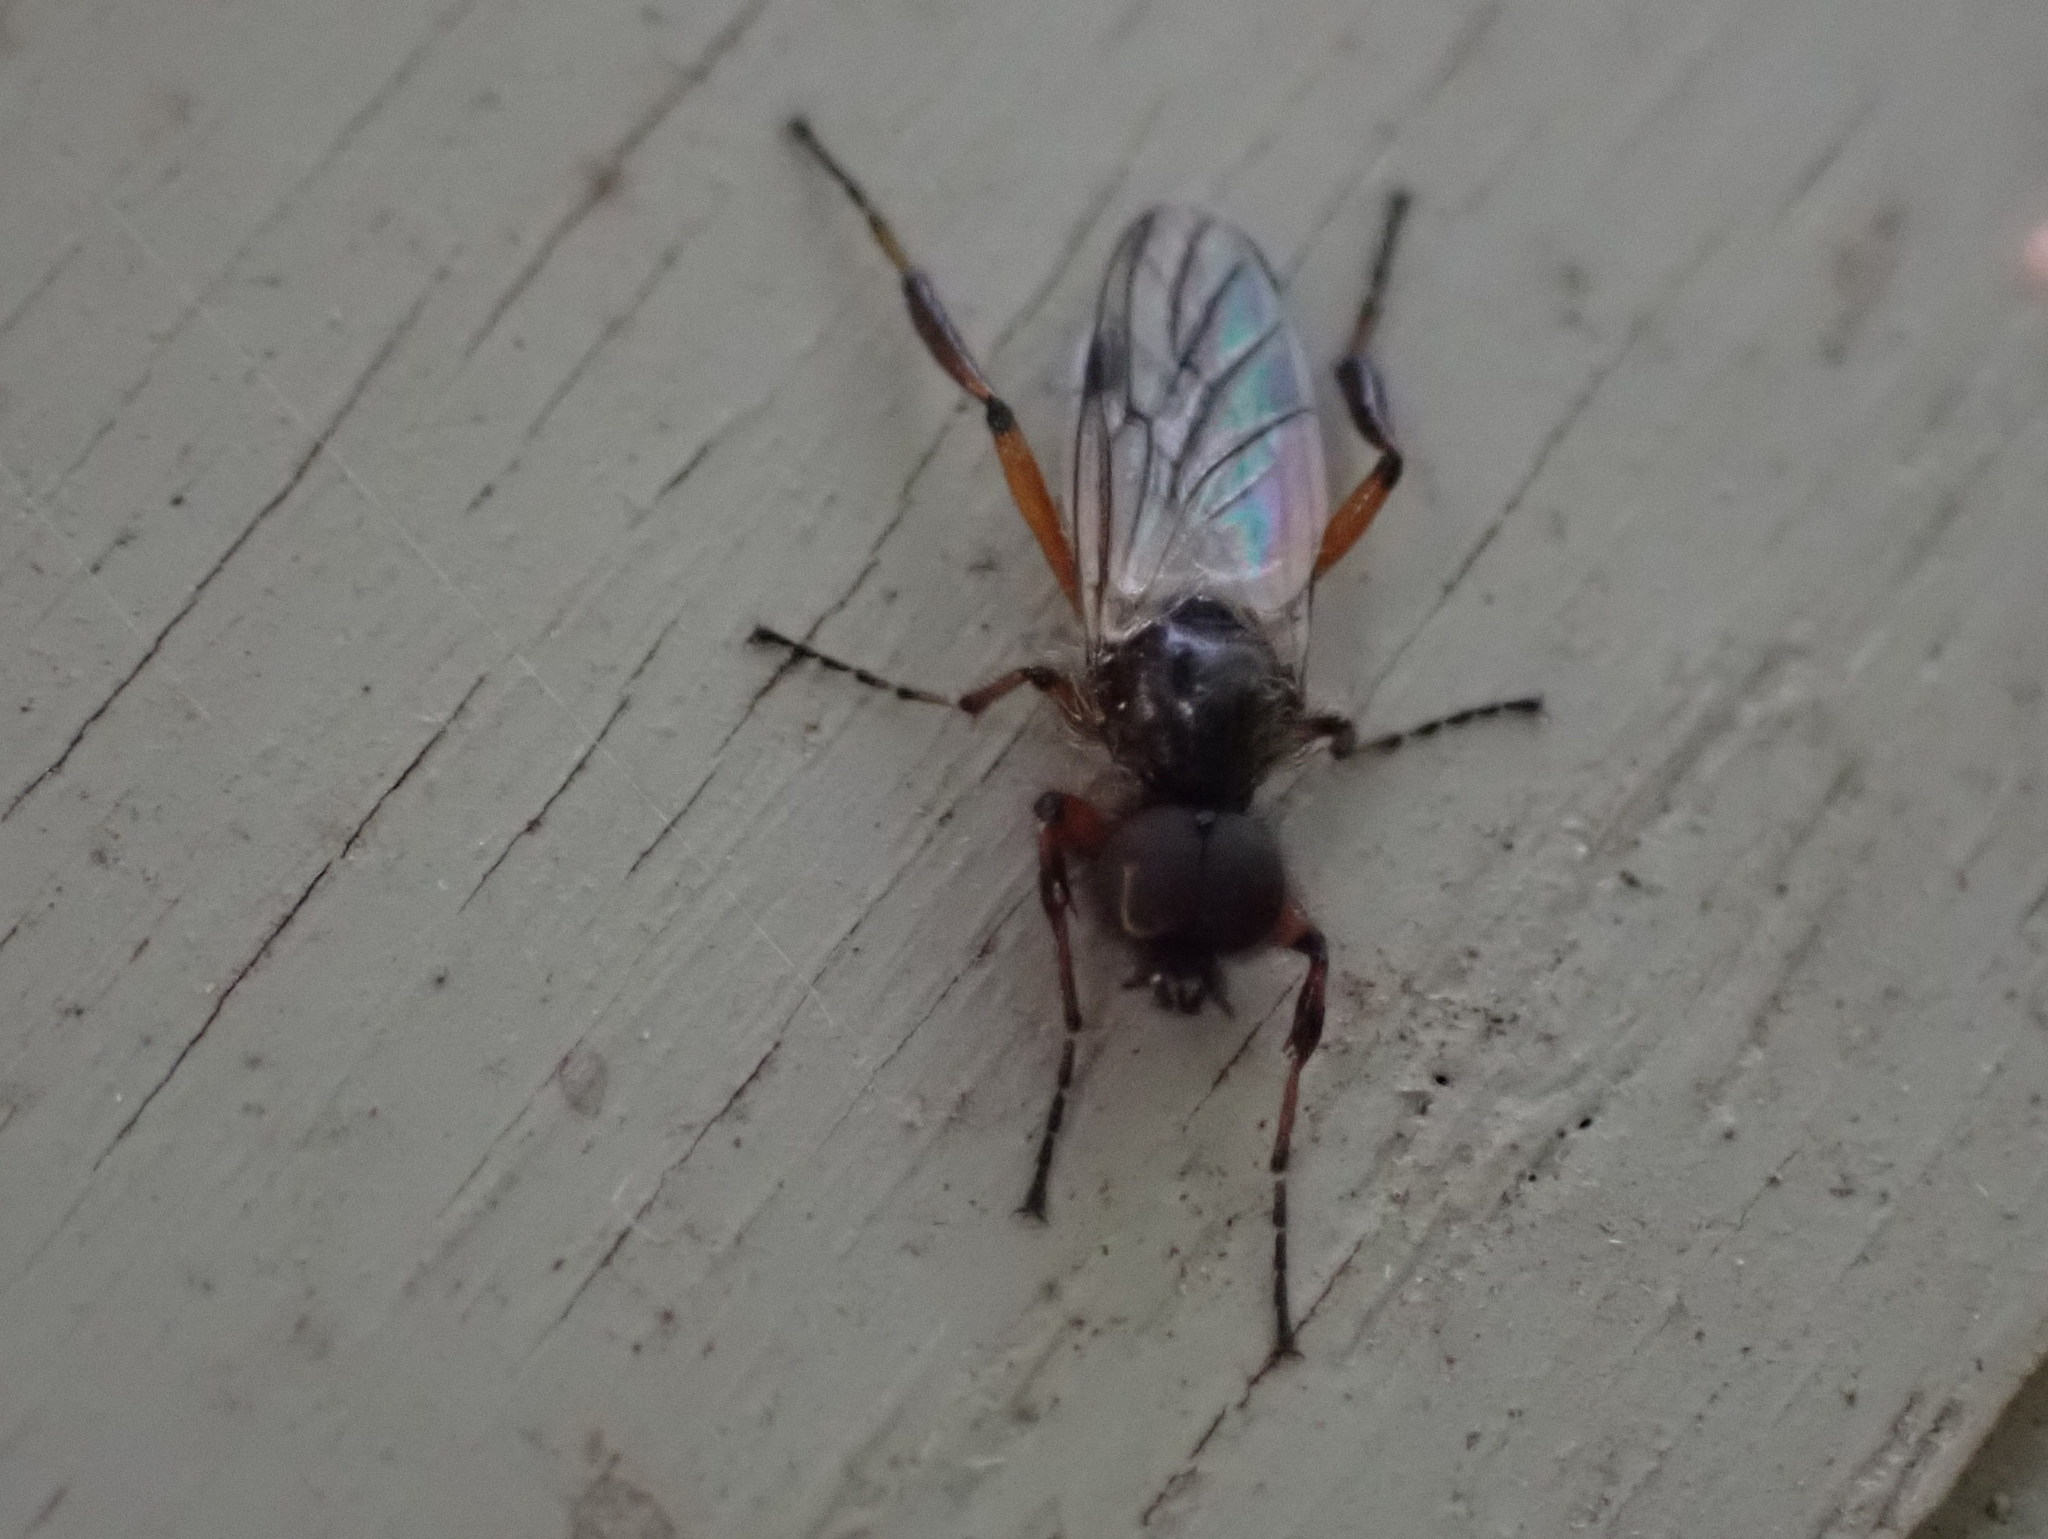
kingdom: Animalia
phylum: Arthropoda
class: Insecta
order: Diptera
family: Bibionidae
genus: Bibio
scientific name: Bibio xanthopus
